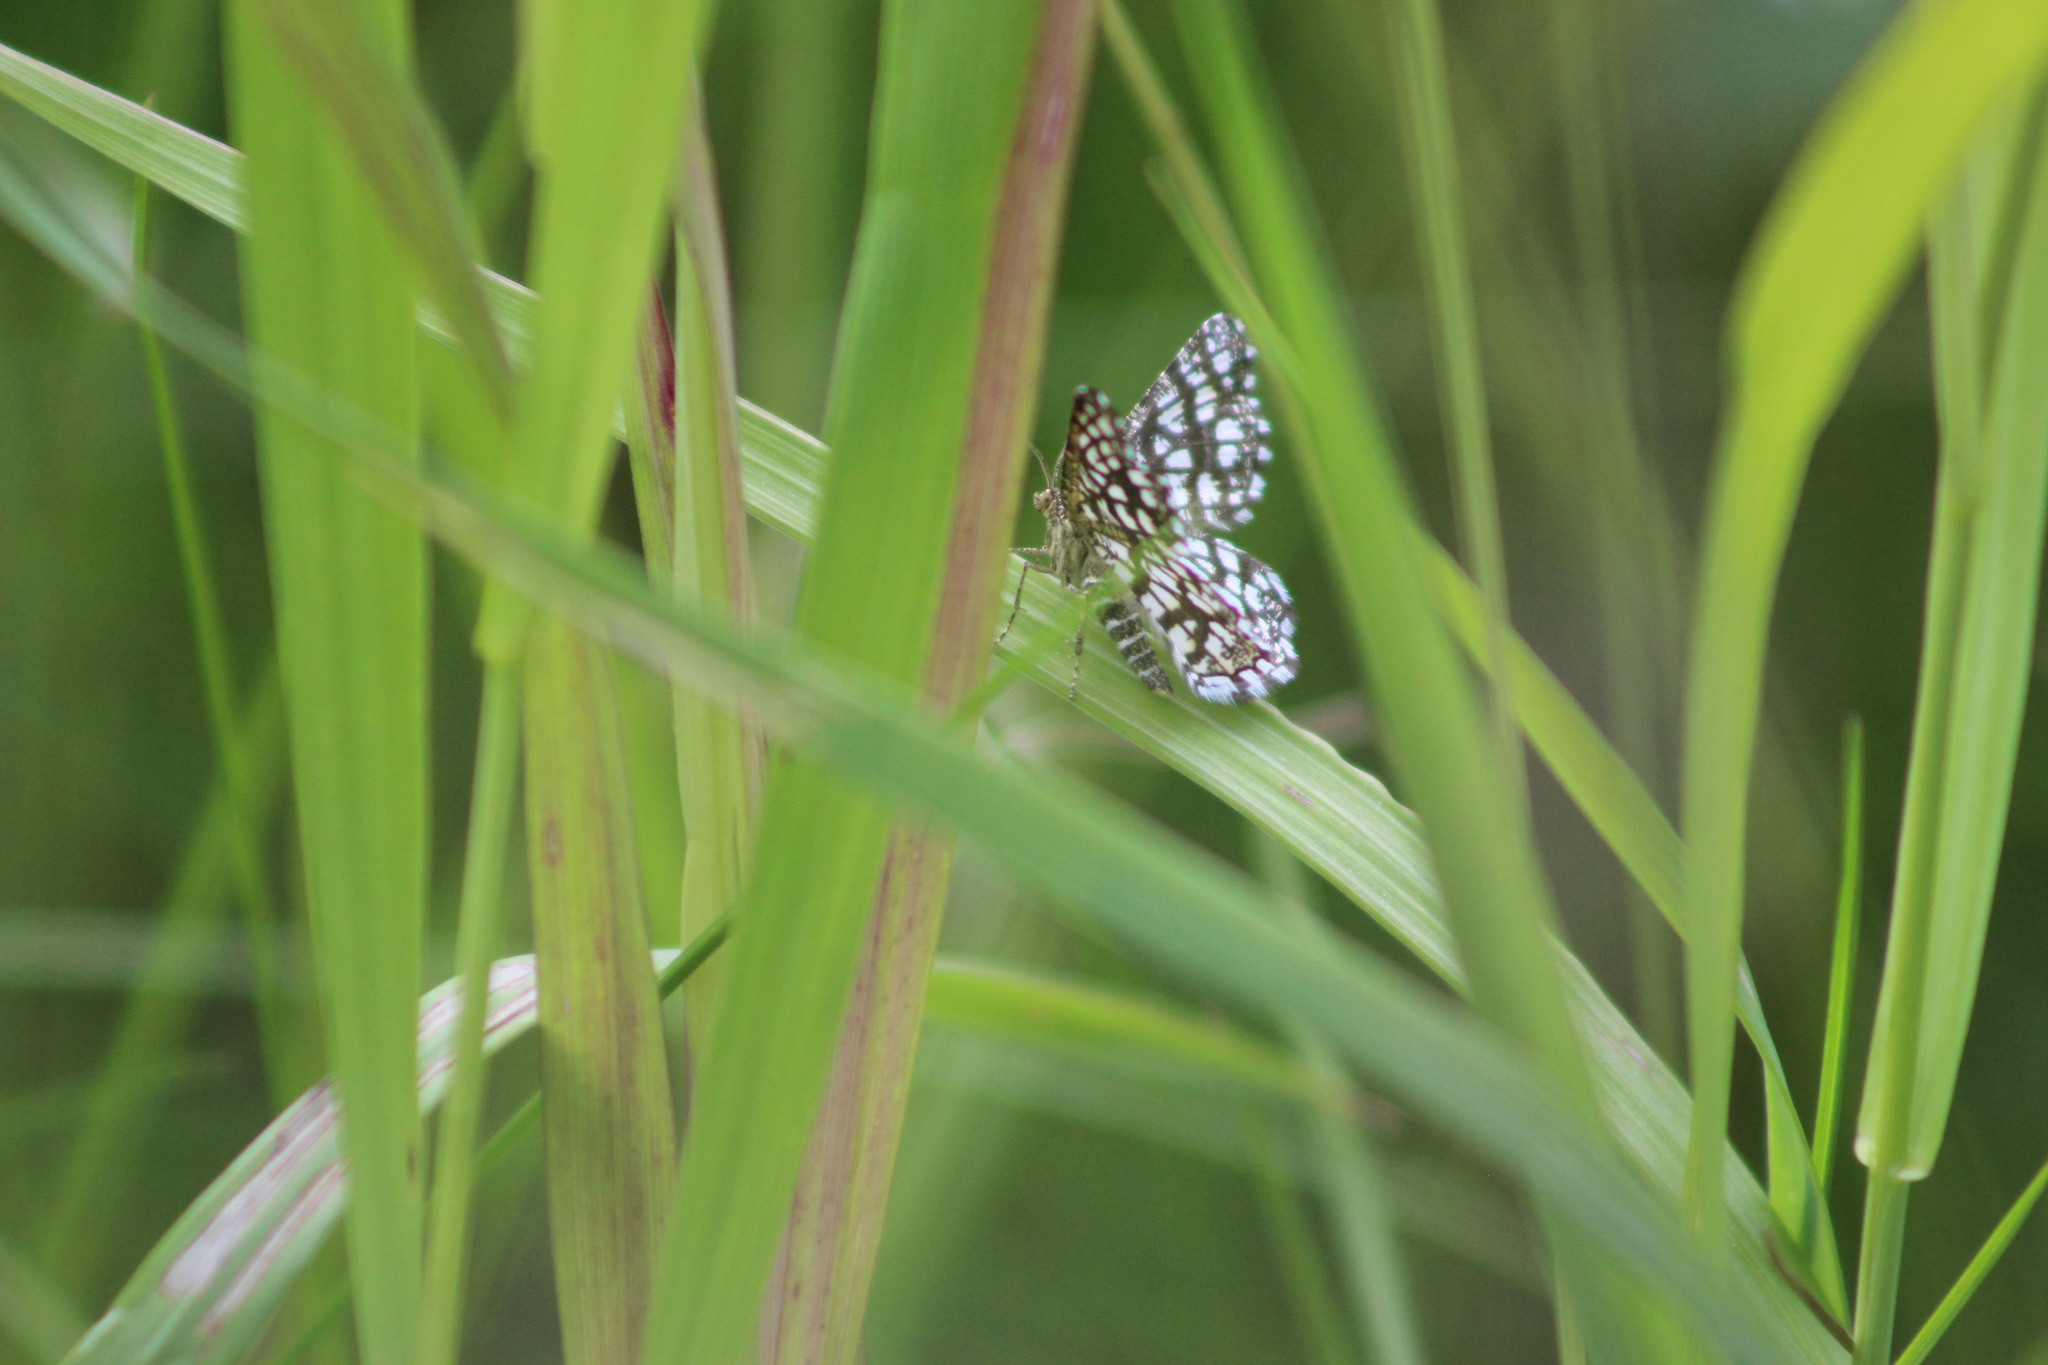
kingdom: Animalia
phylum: Arthropoda
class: Insecta
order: Lepidoptera
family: Geometridae
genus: Chiasmia
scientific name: Chiasmia clathrata
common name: Latticed heath
